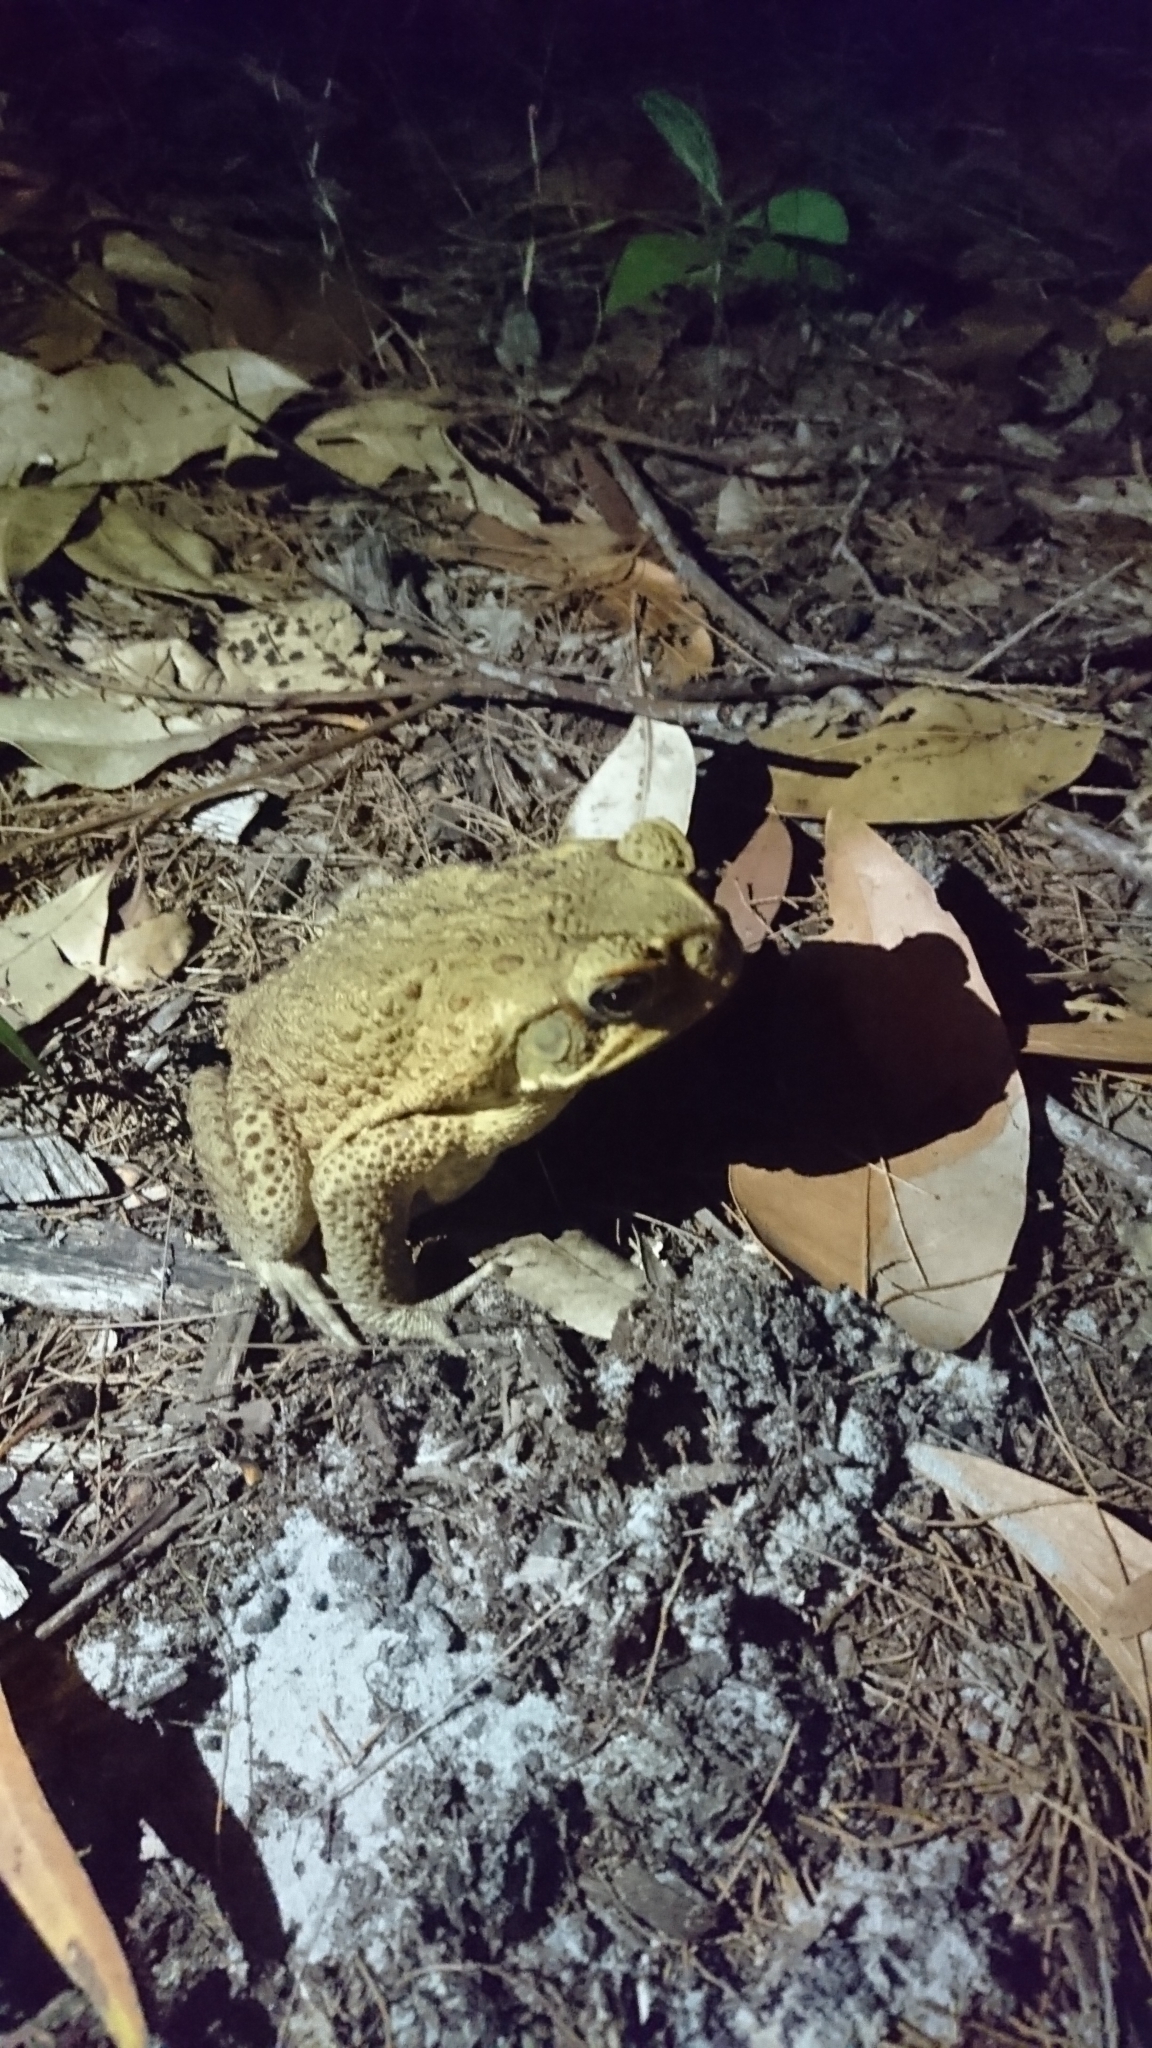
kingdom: Animalia
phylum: Chordata
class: Amphibia
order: Anura
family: Bufonidae
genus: Rhinella
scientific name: Rhinella marina
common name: Cane toad
